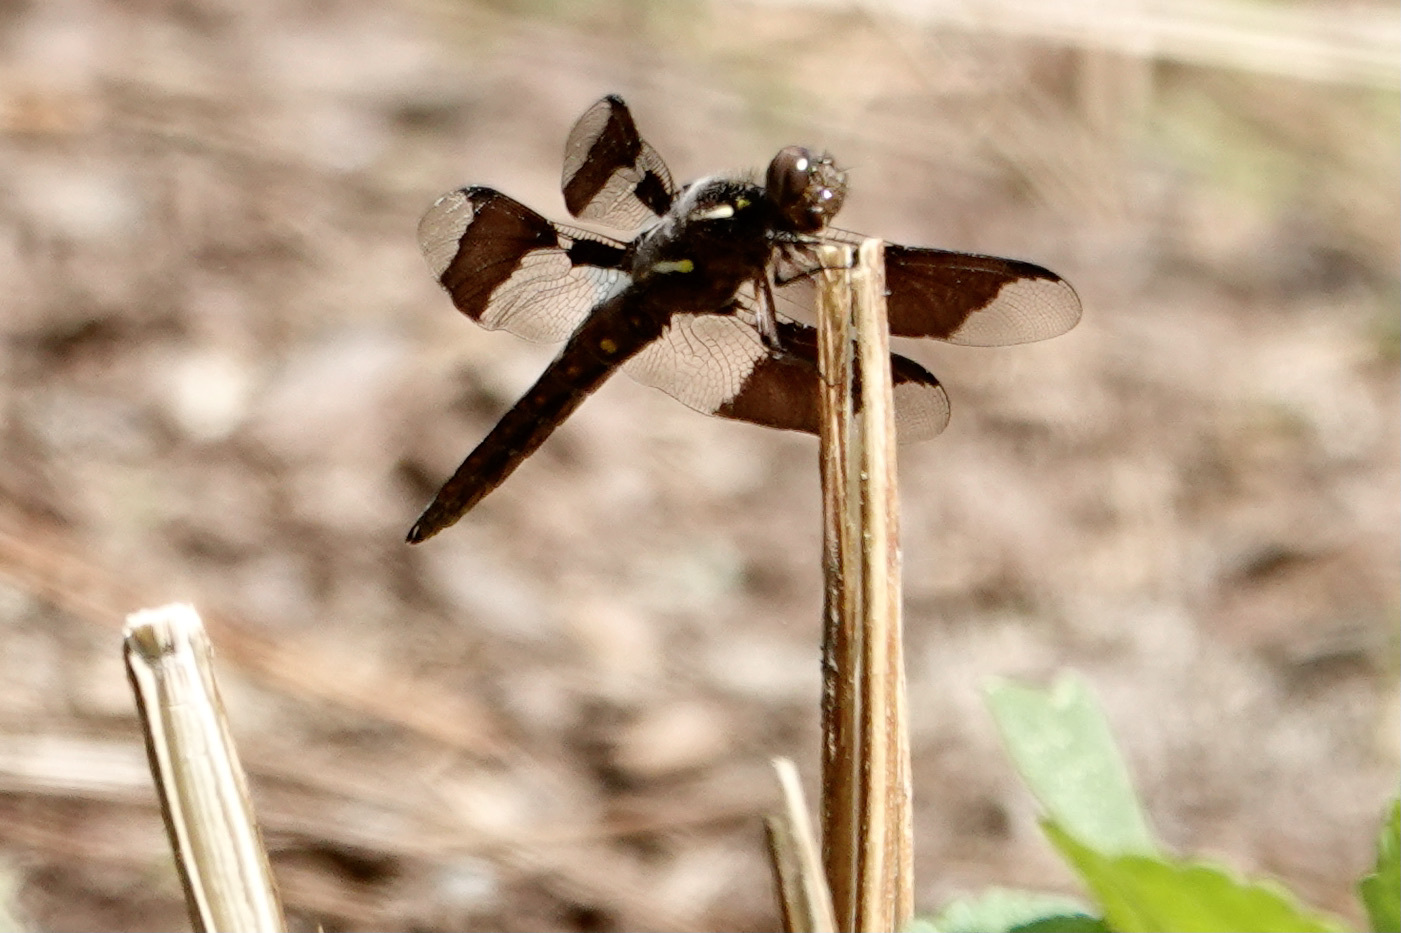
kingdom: Animalia
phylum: Arthropoda
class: Insecta
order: Odonata
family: Libellulidae
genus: Plathemis
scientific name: Plathemis lydia
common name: Common whitetail
